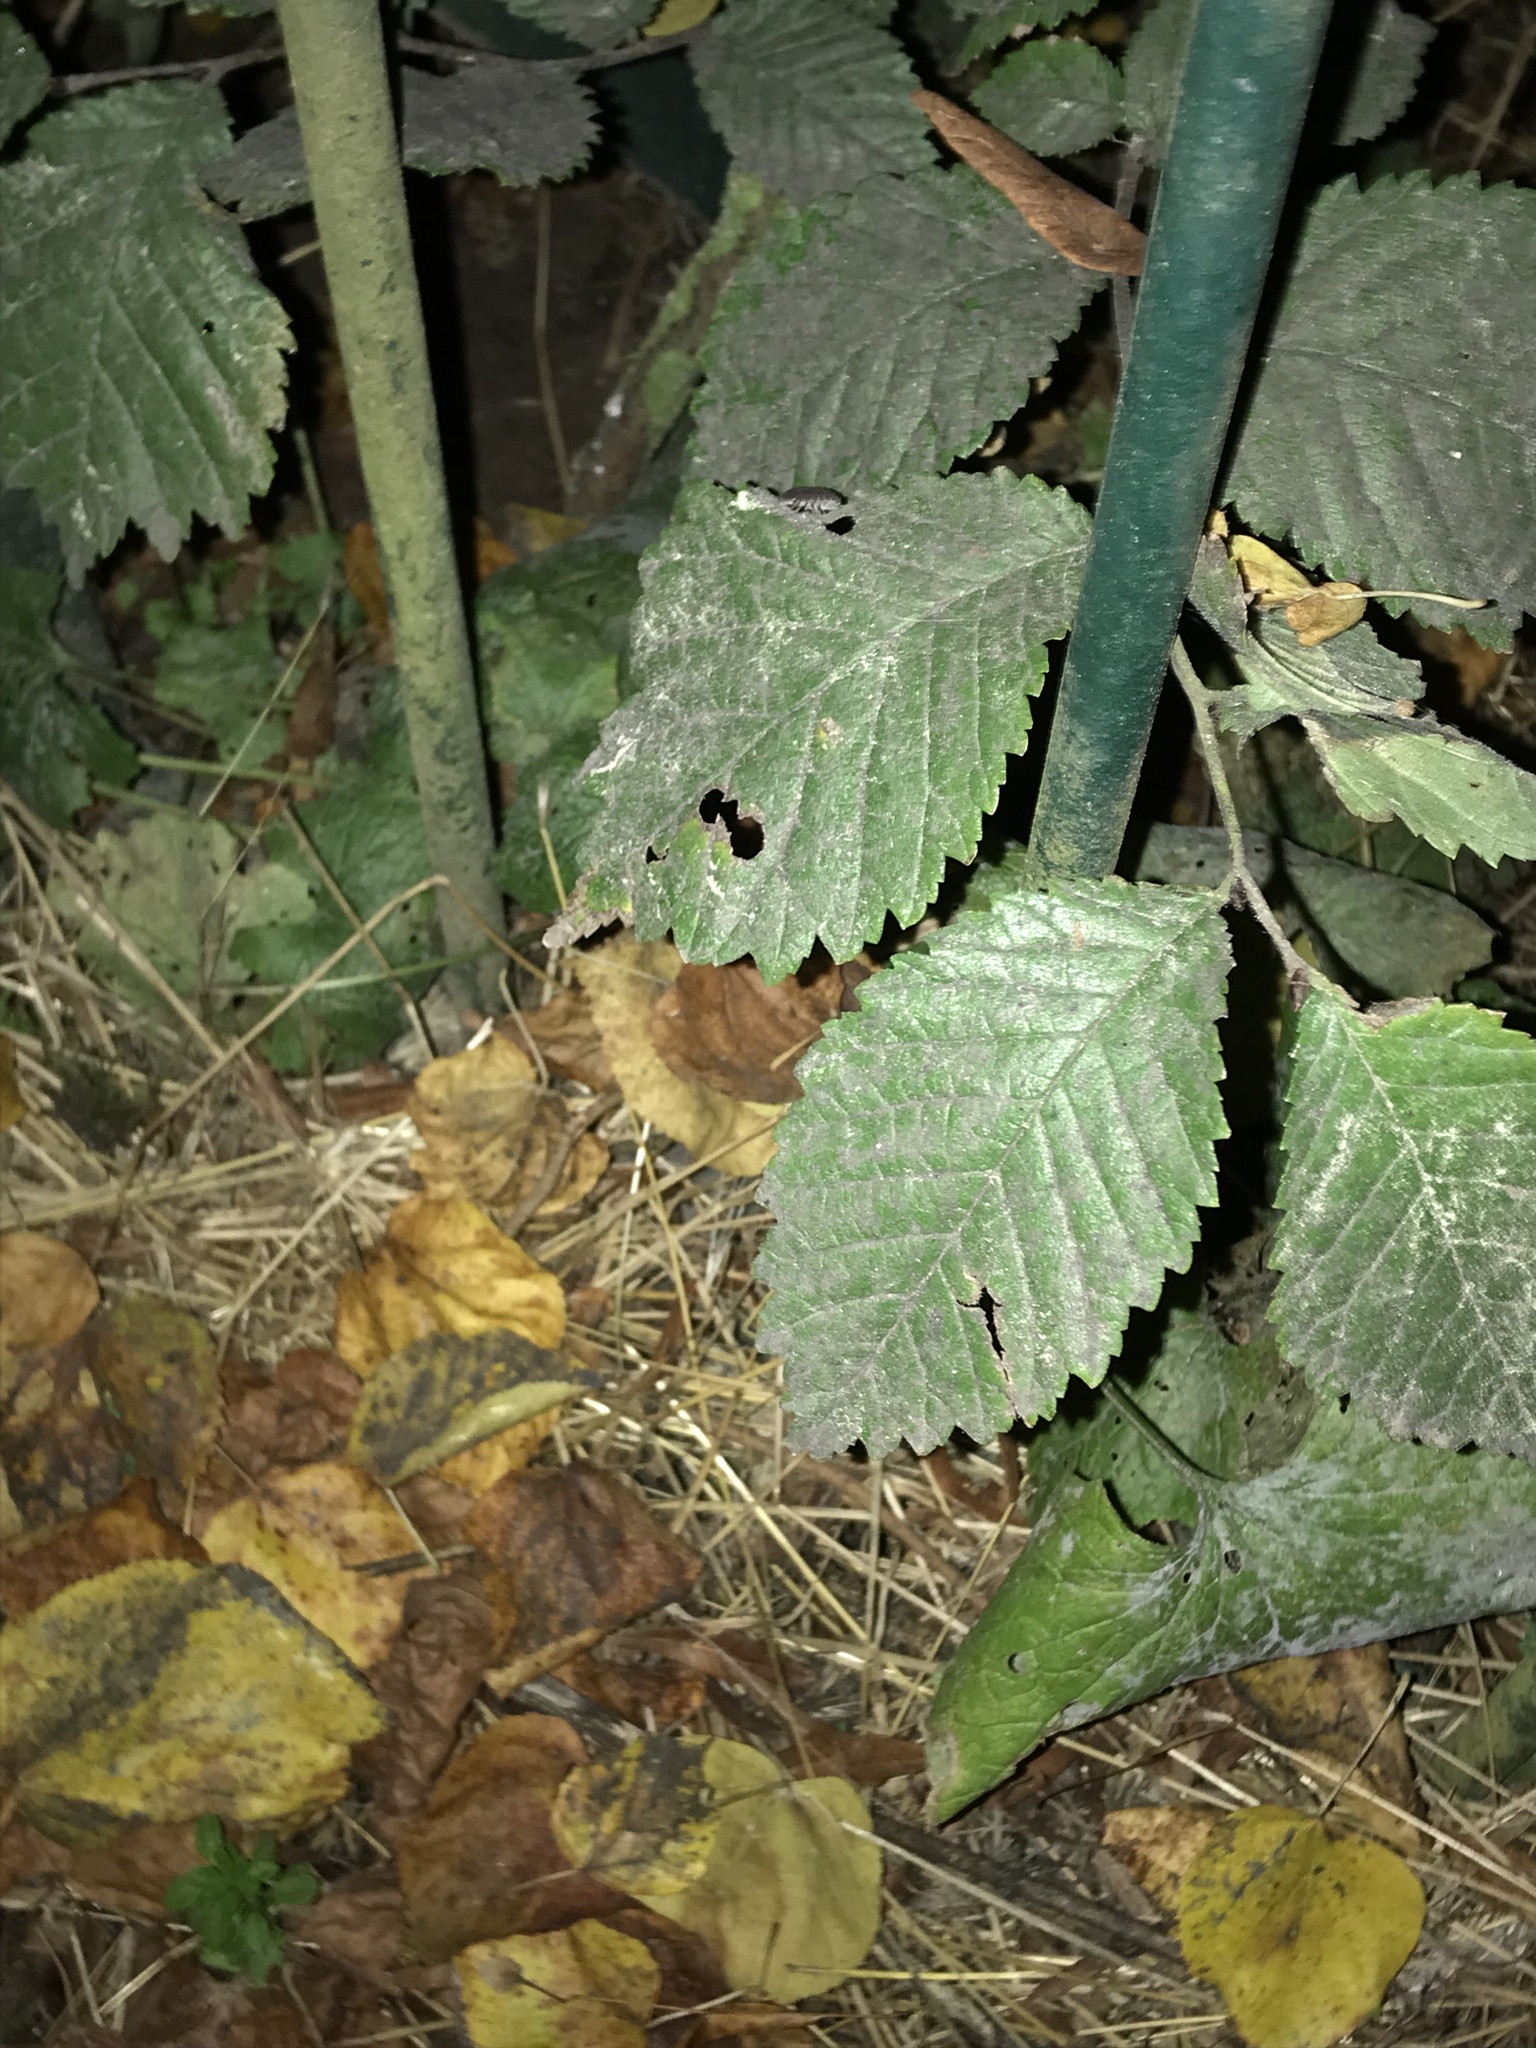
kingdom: Plantae
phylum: Tracheophyta
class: Magnoliopsida
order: Rosales
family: Ulmaceae
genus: Ulmus
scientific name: Ulmus glabra
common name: Wych elm
